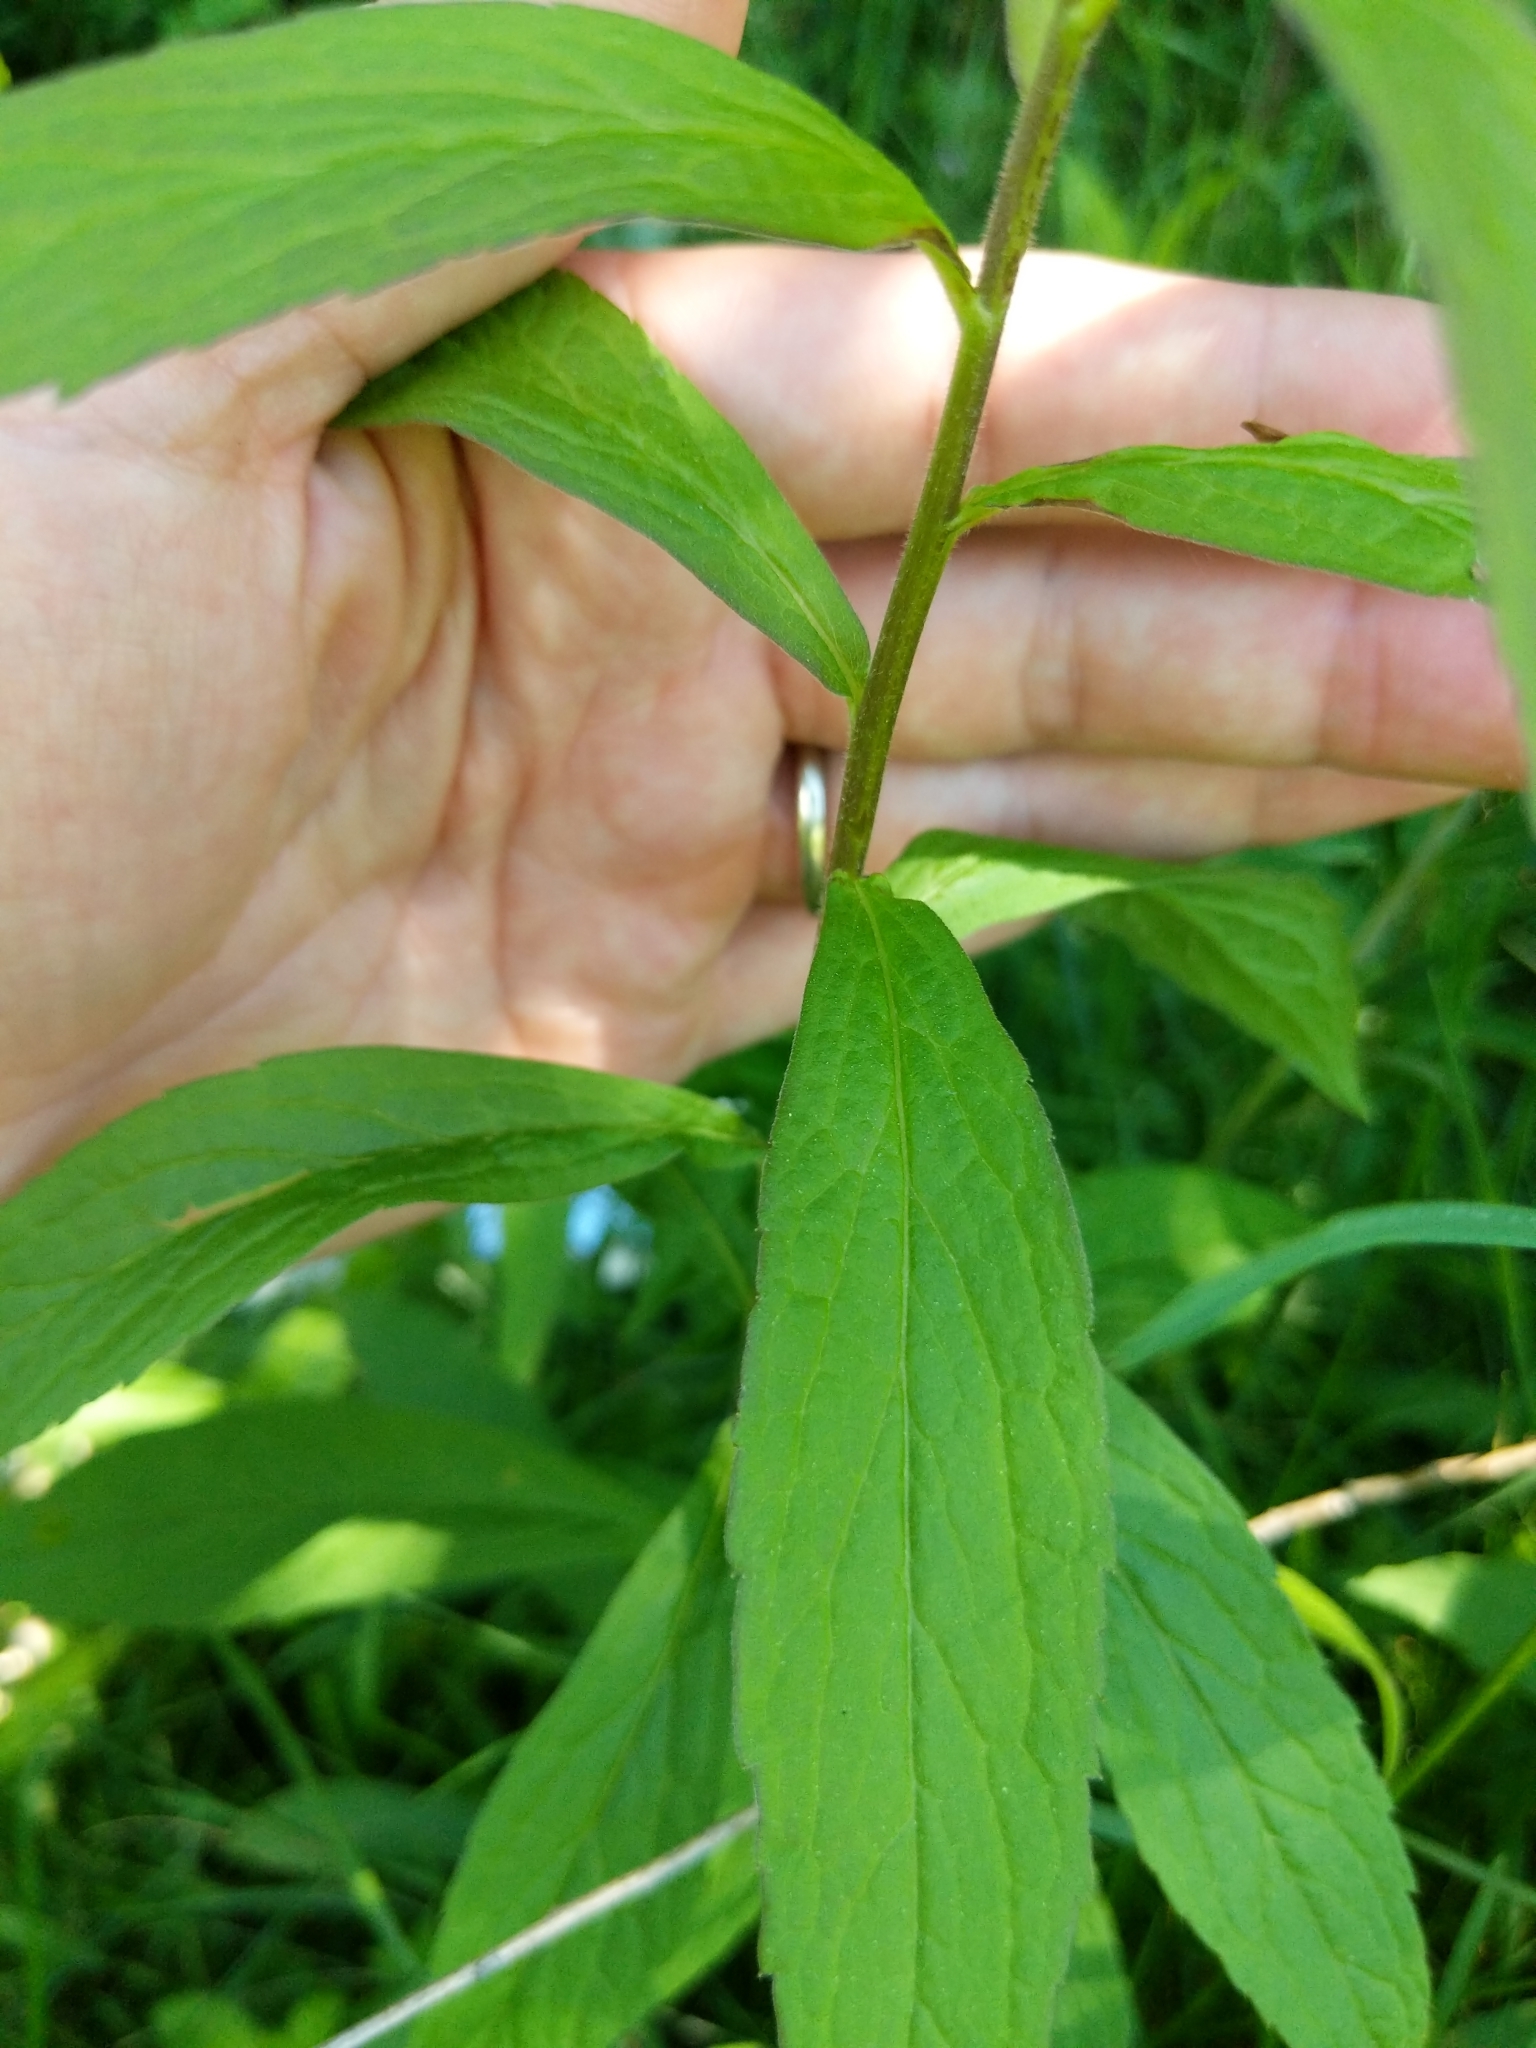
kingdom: Plantae
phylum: Tracheophyta
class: Magnoliopsida
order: Asterales
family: Asteraceae
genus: Solidago
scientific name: Solidago rugosa
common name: Rough-stemmed goldenrod
